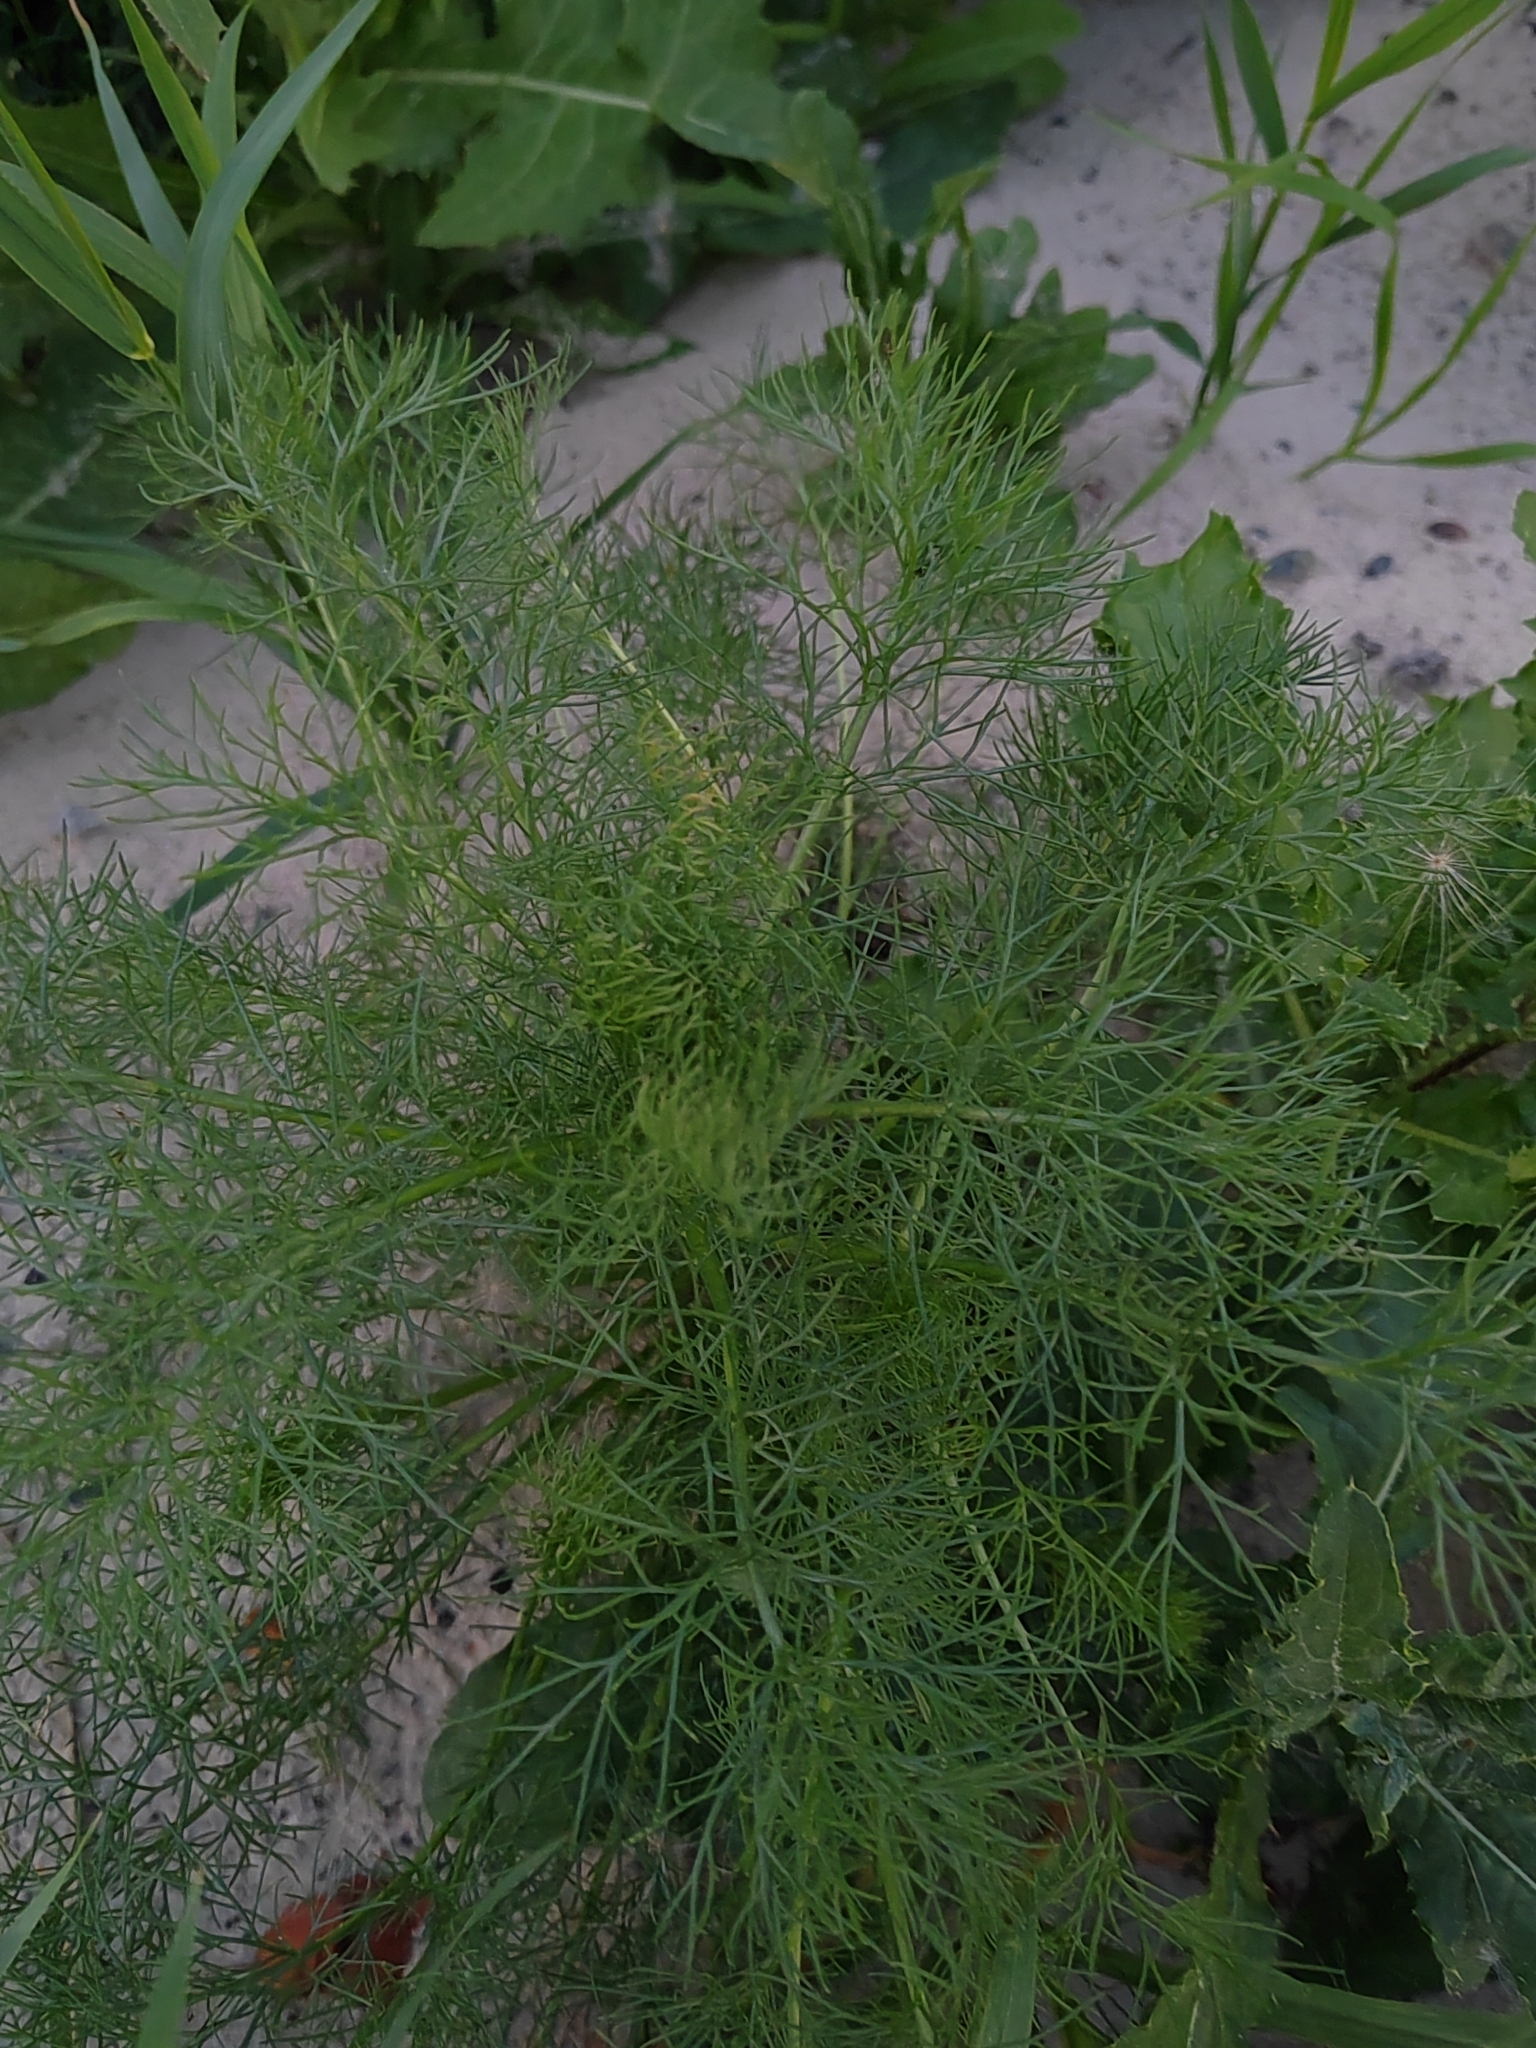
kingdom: Plantae
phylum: Tracheophyta
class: Magnoliopsida
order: Asterales
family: Asteraceae
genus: Tripleurospermum
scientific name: Tripleurospermum inodorum
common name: Scentless mayweed
